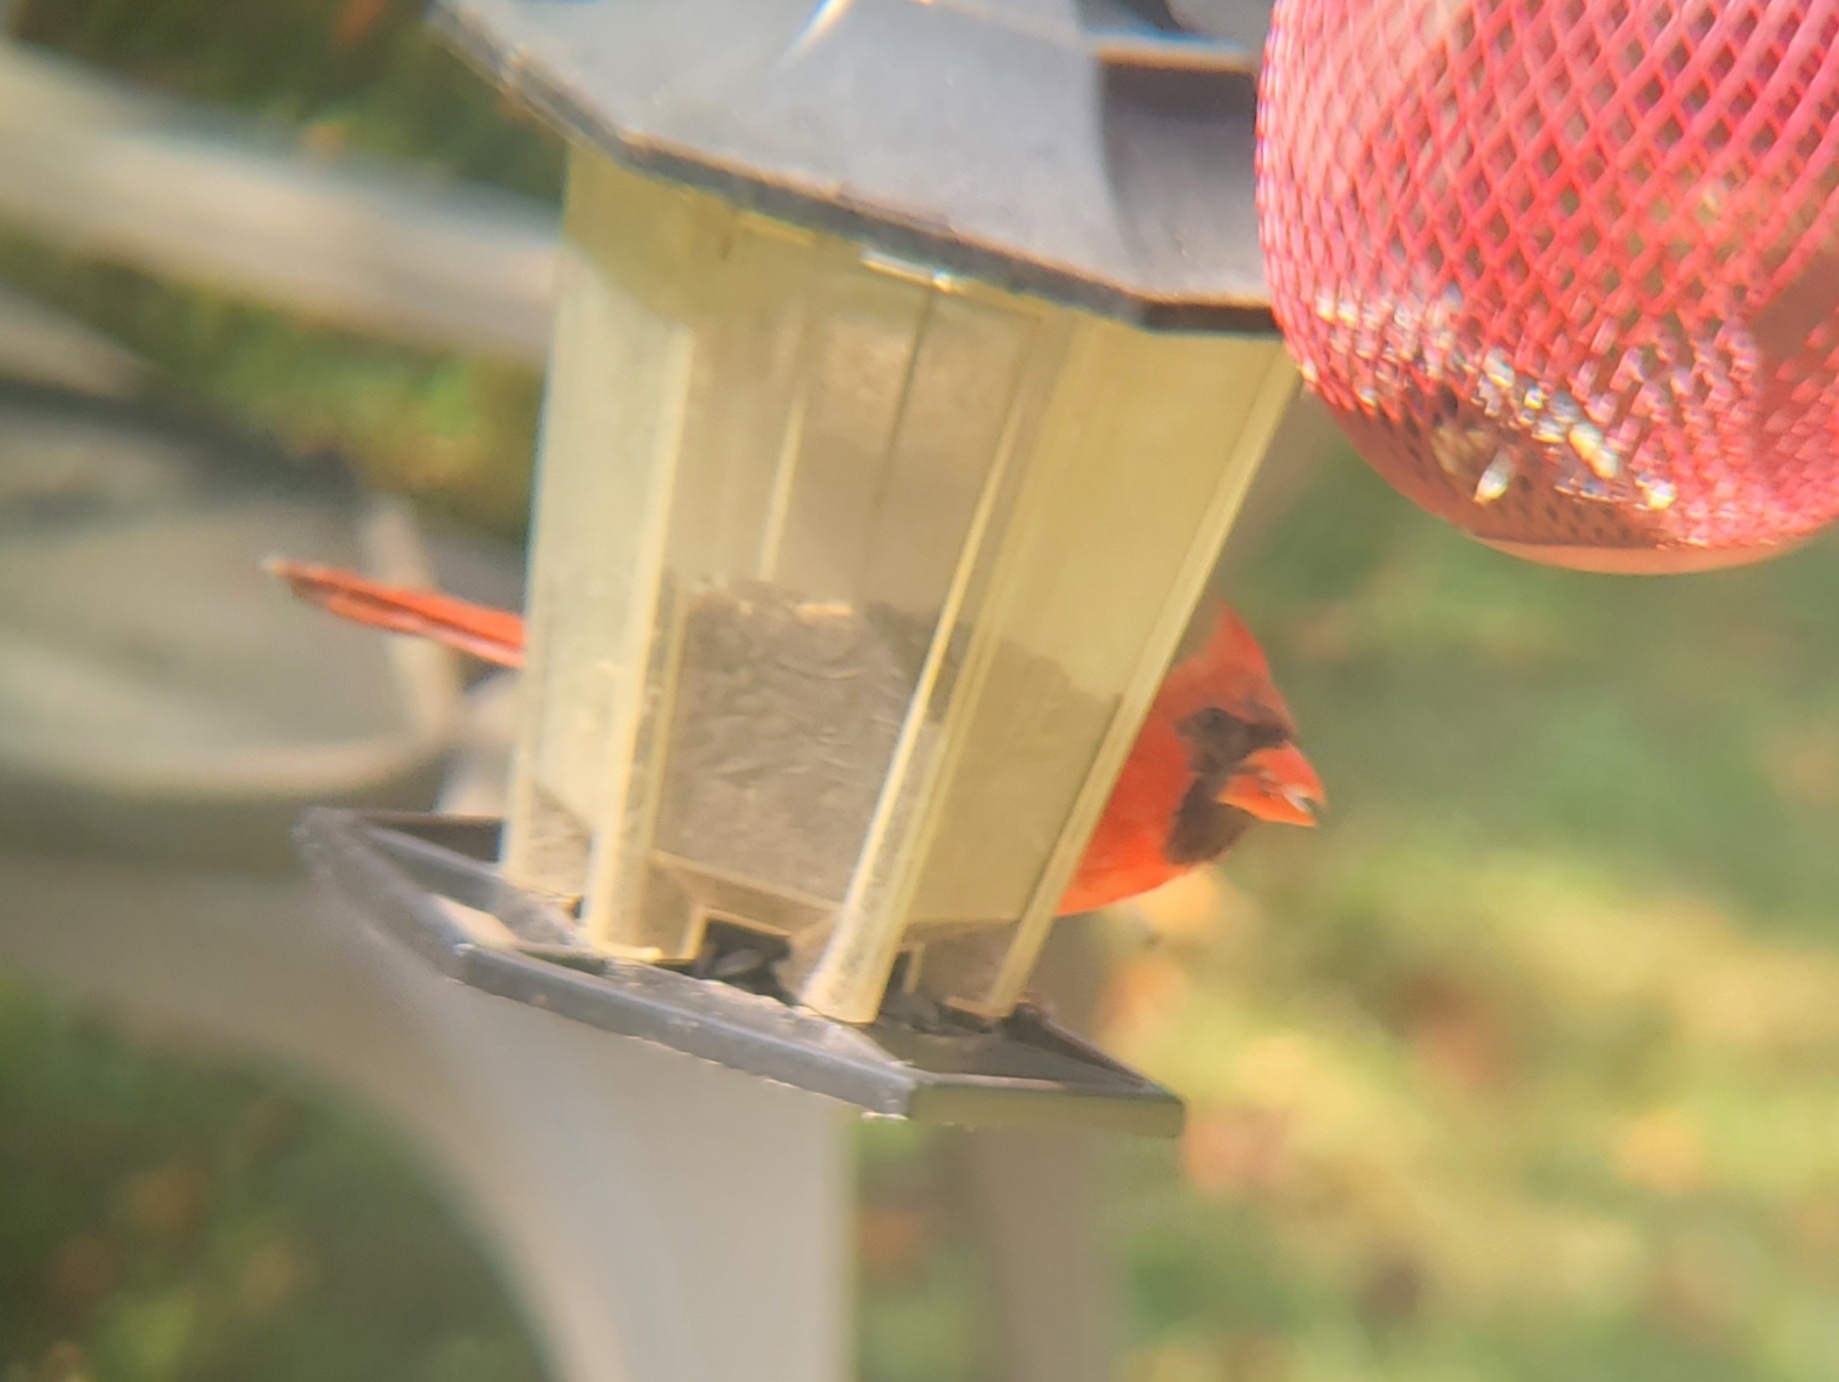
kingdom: Animalia
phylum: Chordata
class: Aves
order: Passeriformes
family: Cardinalidae
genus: Cardinalis
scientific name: Cardinalis cardinalis
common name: Northern cardinal
